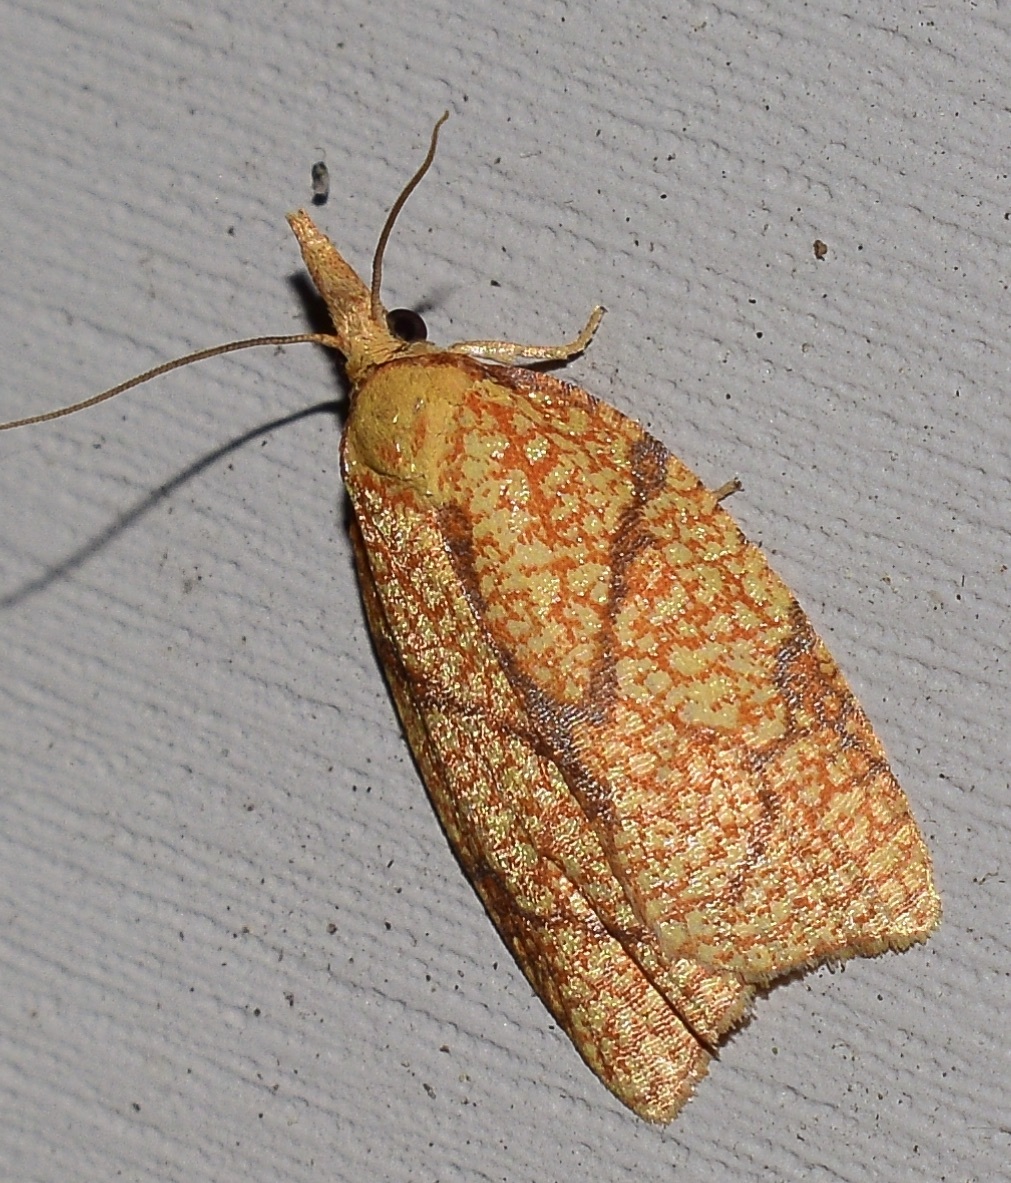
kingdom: Animalia
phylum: Arthropoda
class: Insecta
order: Lepidoptera
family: Tortricidae
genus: Cenopis
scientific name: Cenopis reticulatana
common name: Reticulated fruitworm moth
